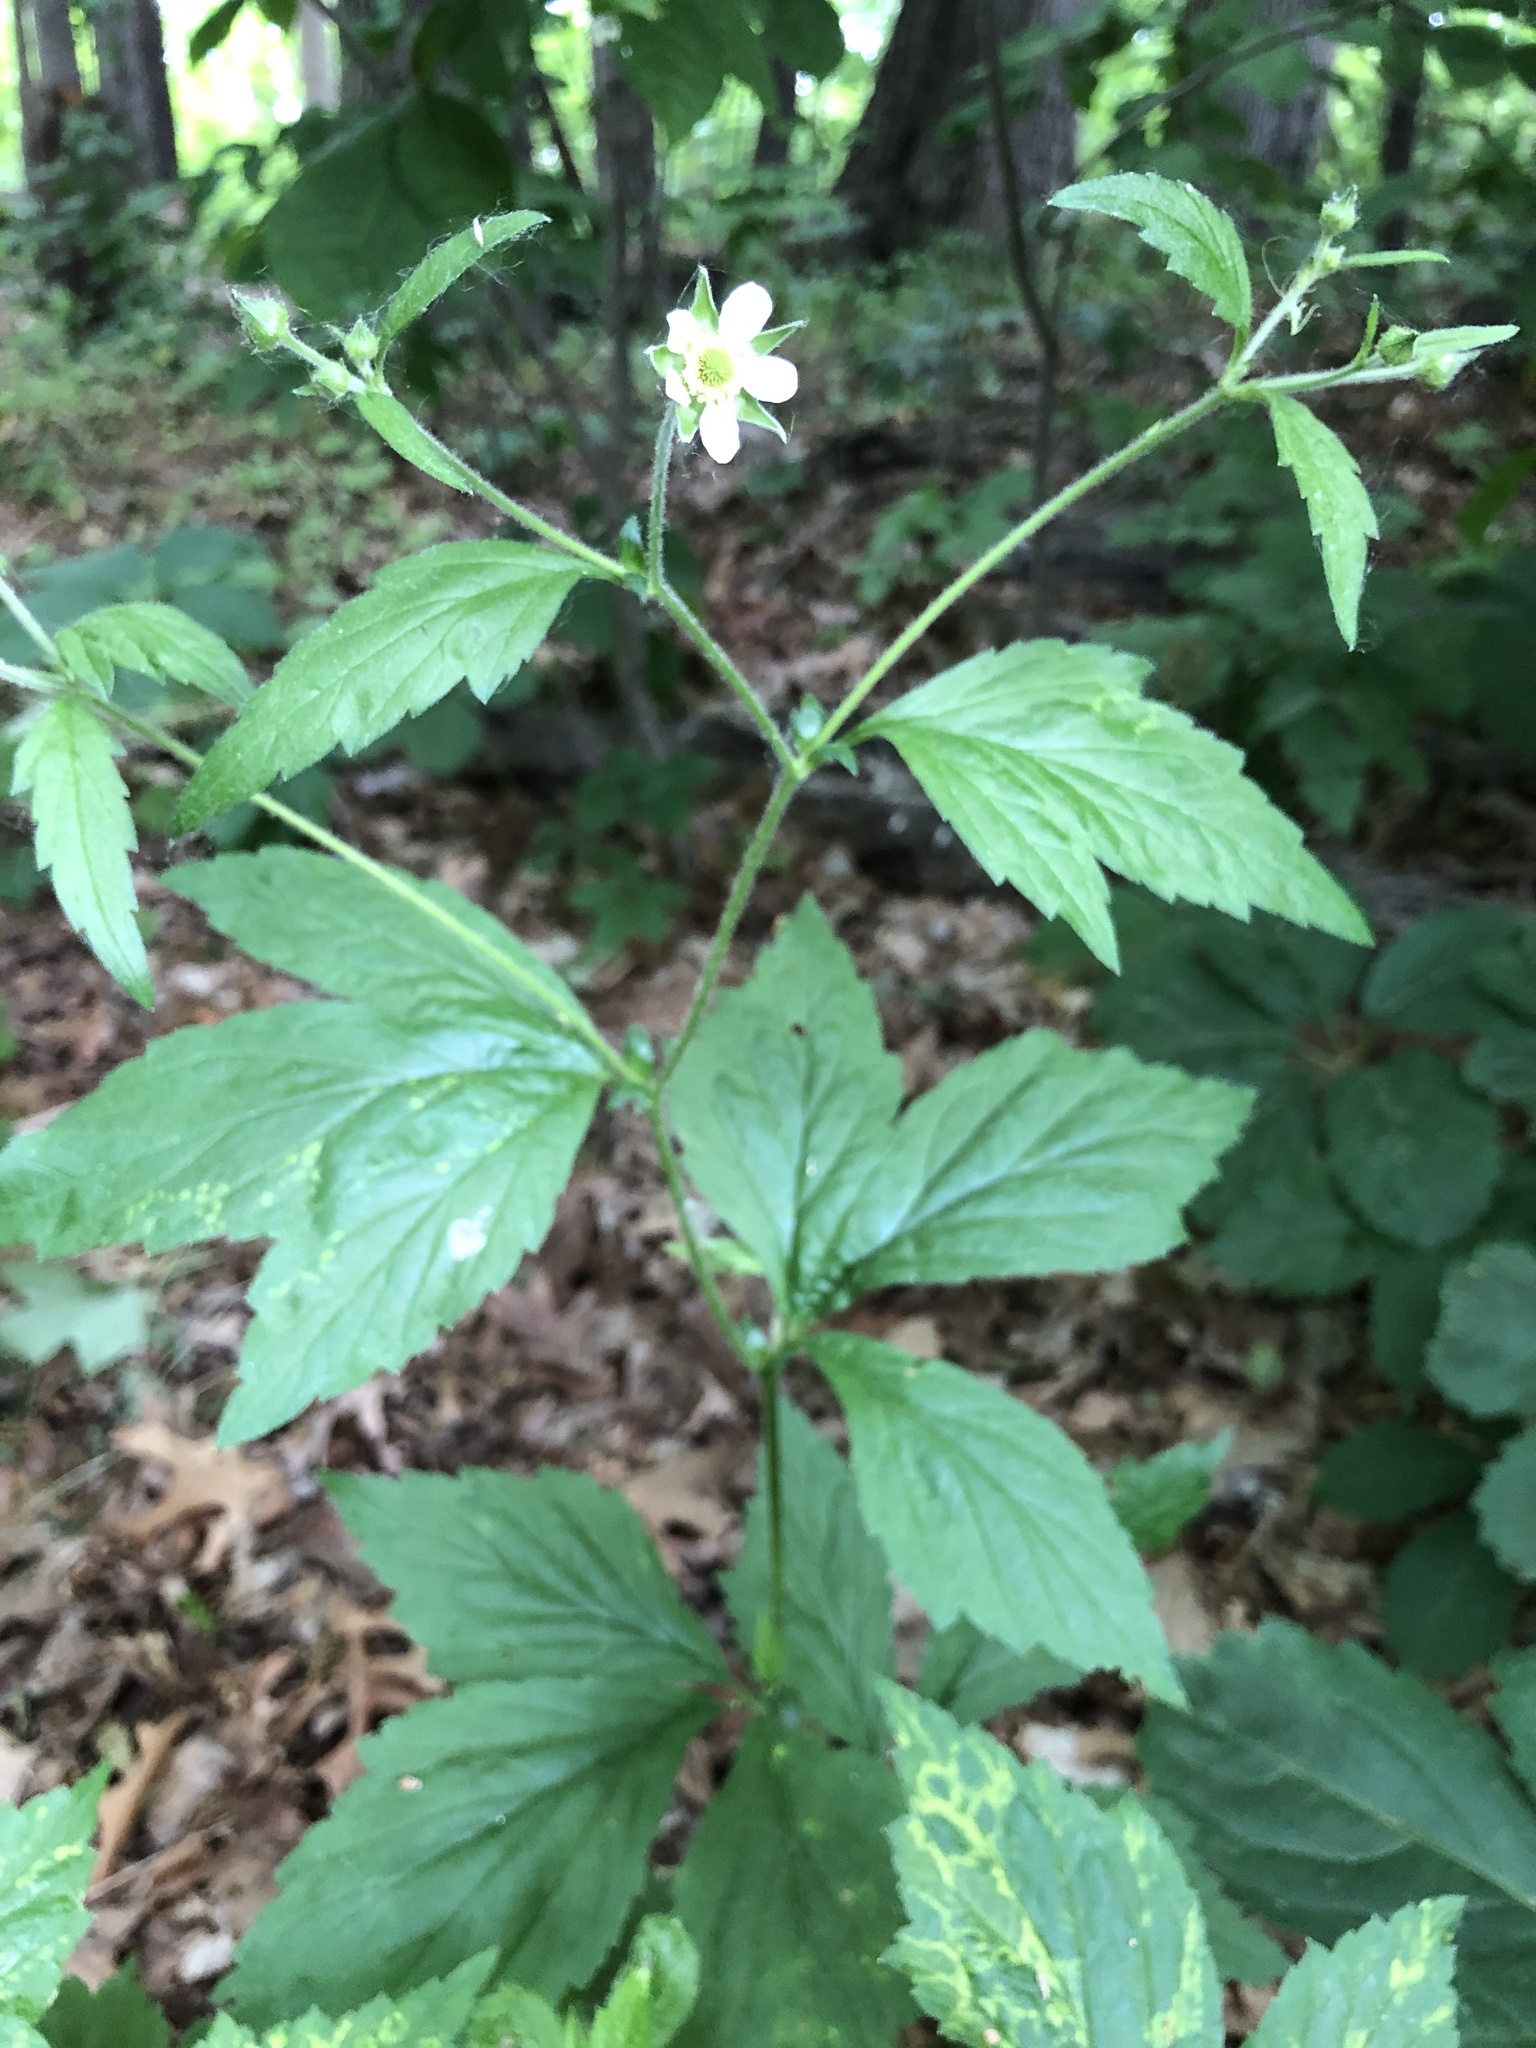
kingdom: Plantae
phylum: Tracheophyta
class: Magnoliopsida
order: Rosales
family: Rosaceae
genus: Geum
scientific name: Geum canadense
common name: White avens
